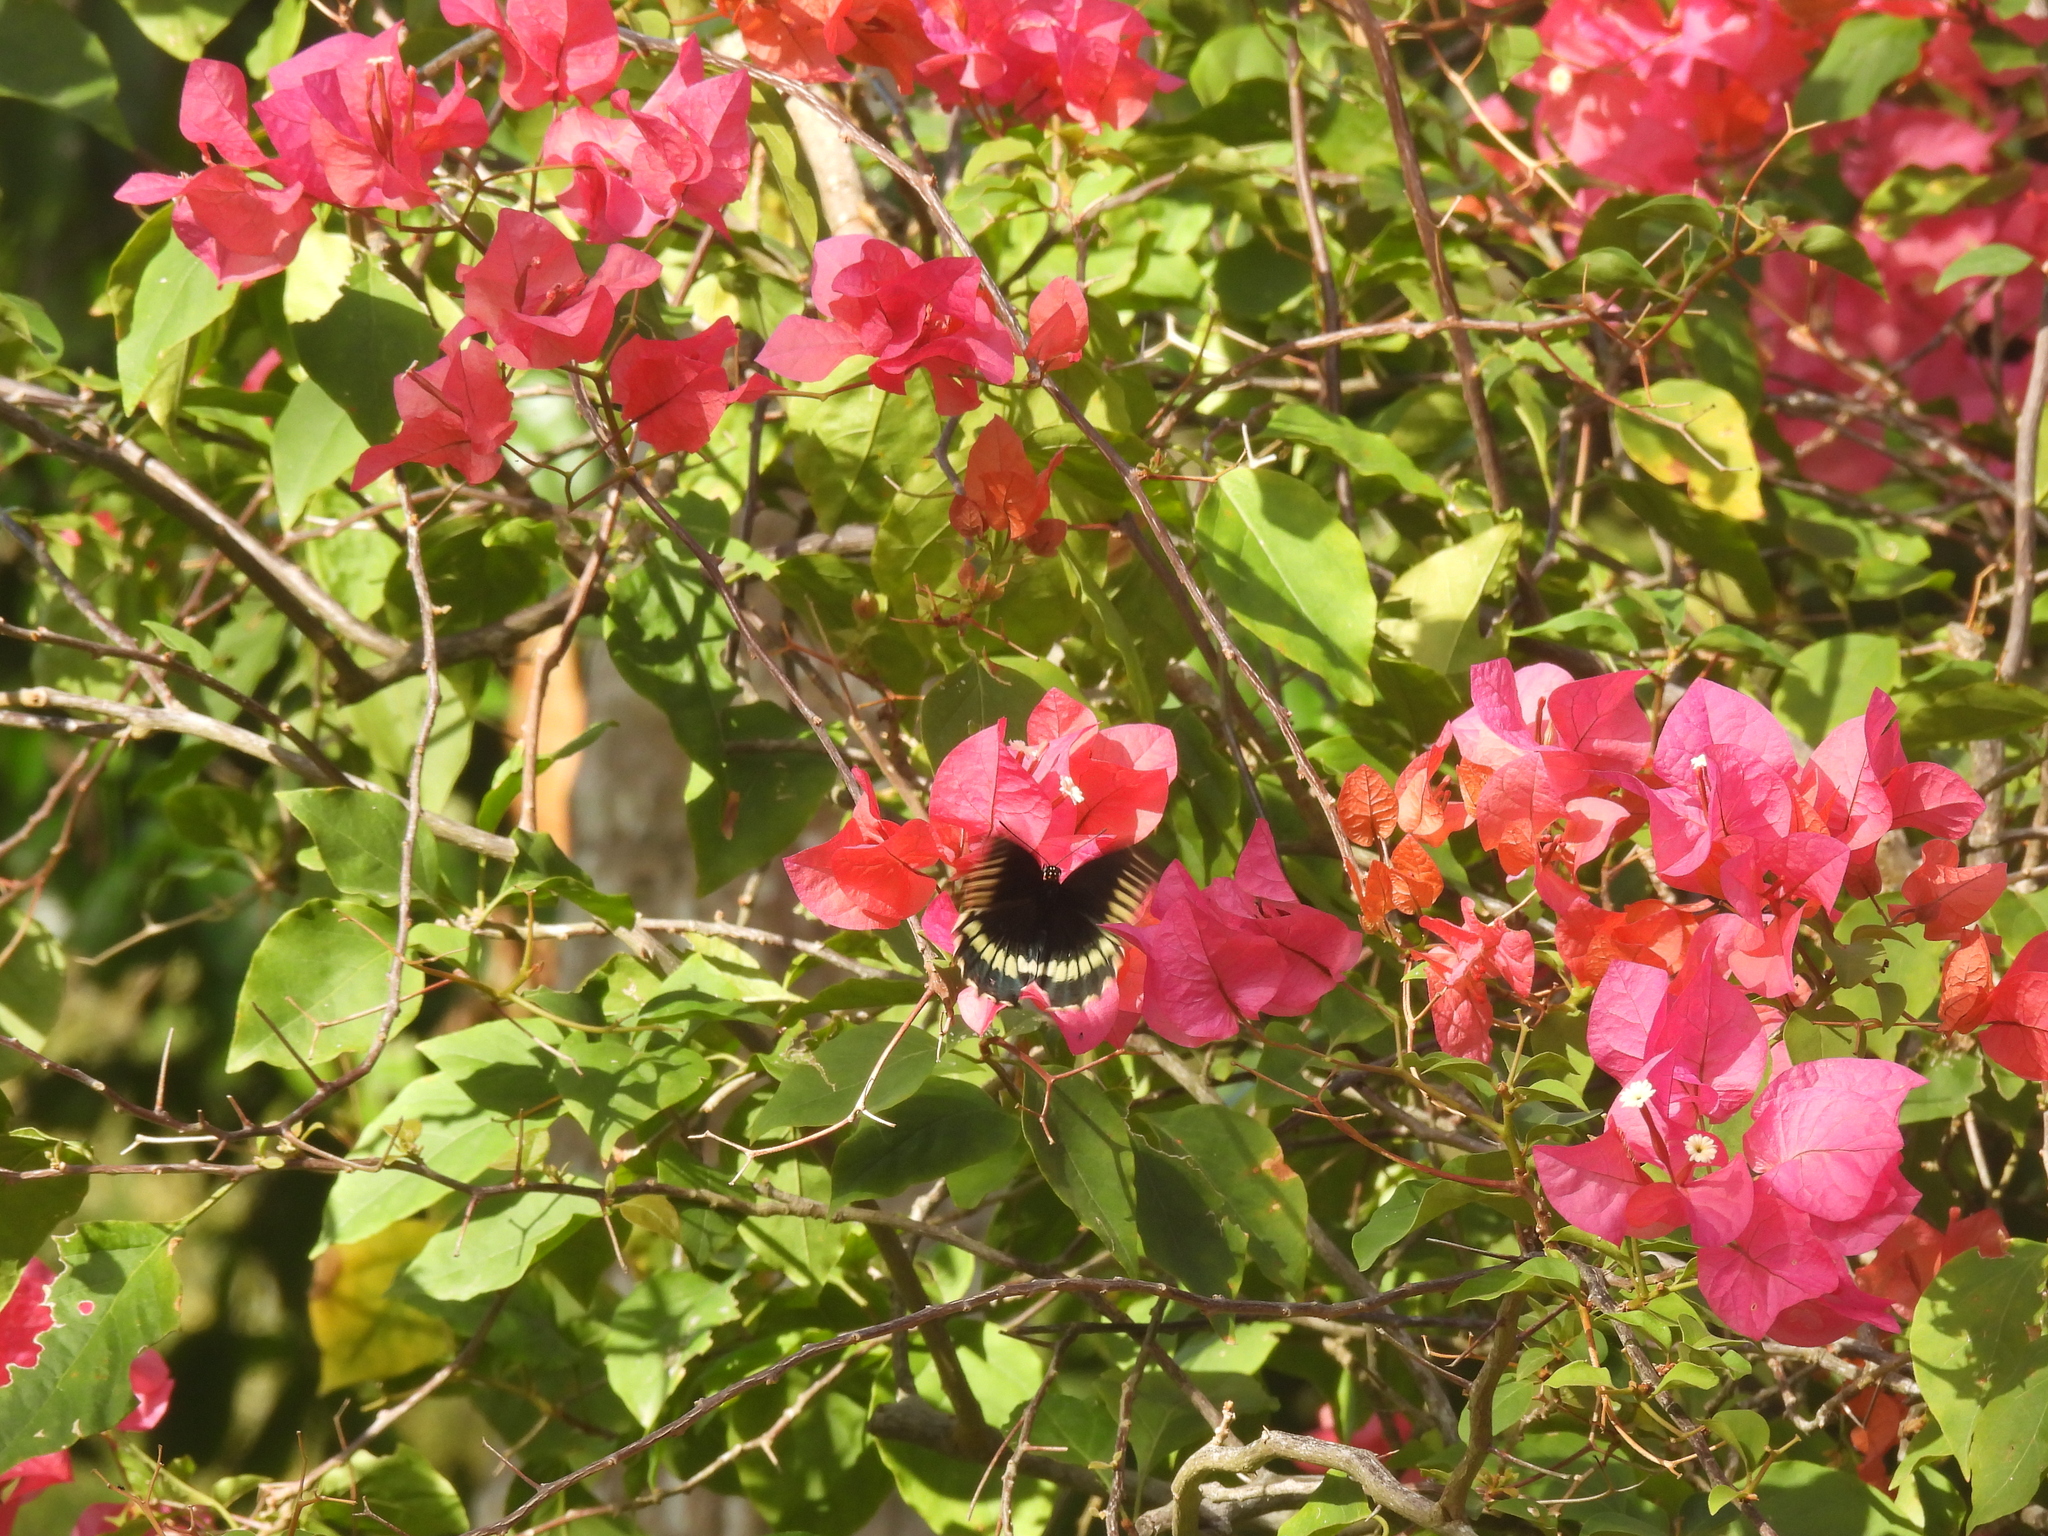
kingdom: Animalia
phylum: Arthropoda
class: Insecta
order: Lepidoptera
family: Papilionidae
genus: Battus
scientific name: Battus polydamas
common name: Polydamas swallowtail
